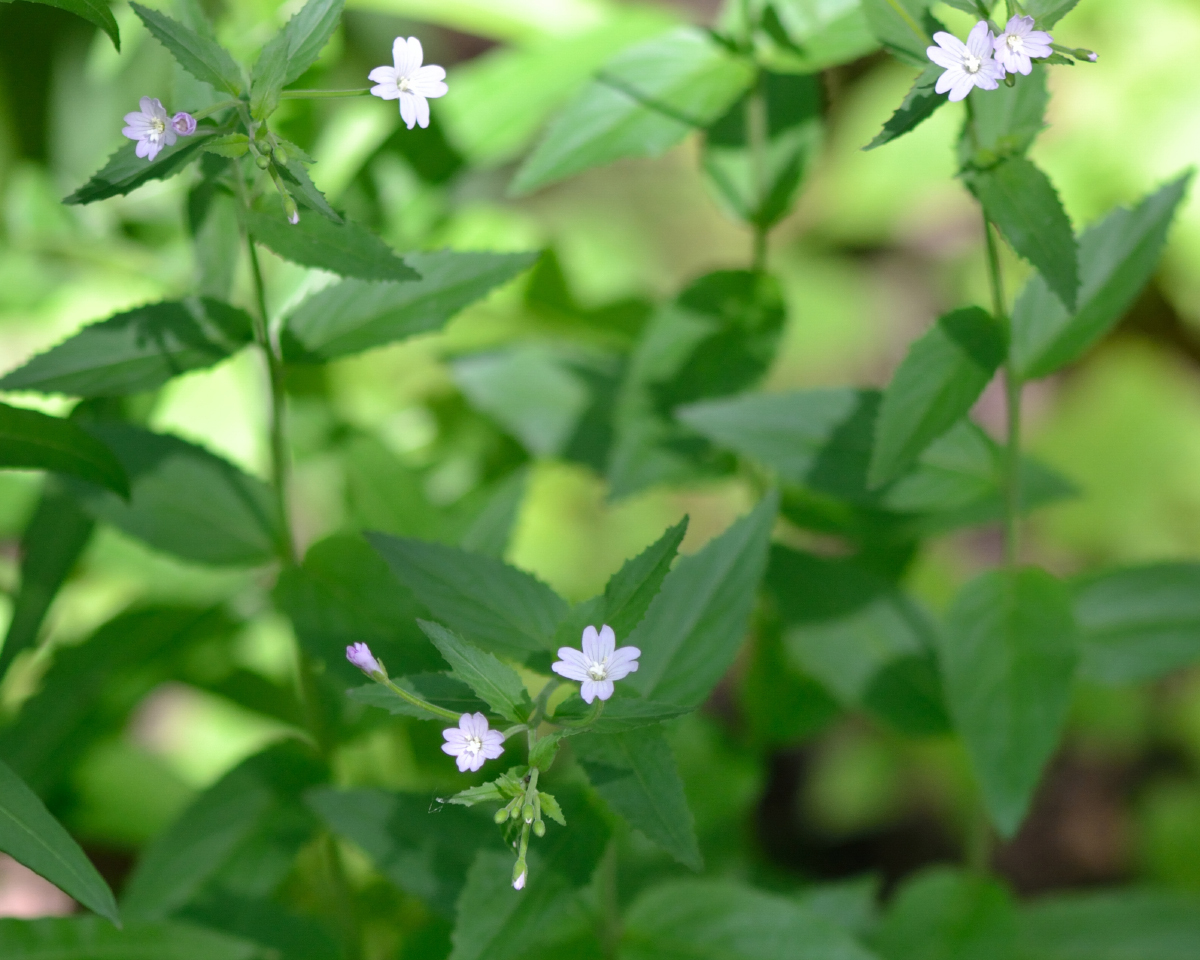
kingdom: Plantae
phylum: Tracheophyta
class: Magnoliopsida
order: Myrtales
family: Onagraceae
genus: Epilobium
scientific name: Epilobium montanum
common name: Broad-leaved willowherb
